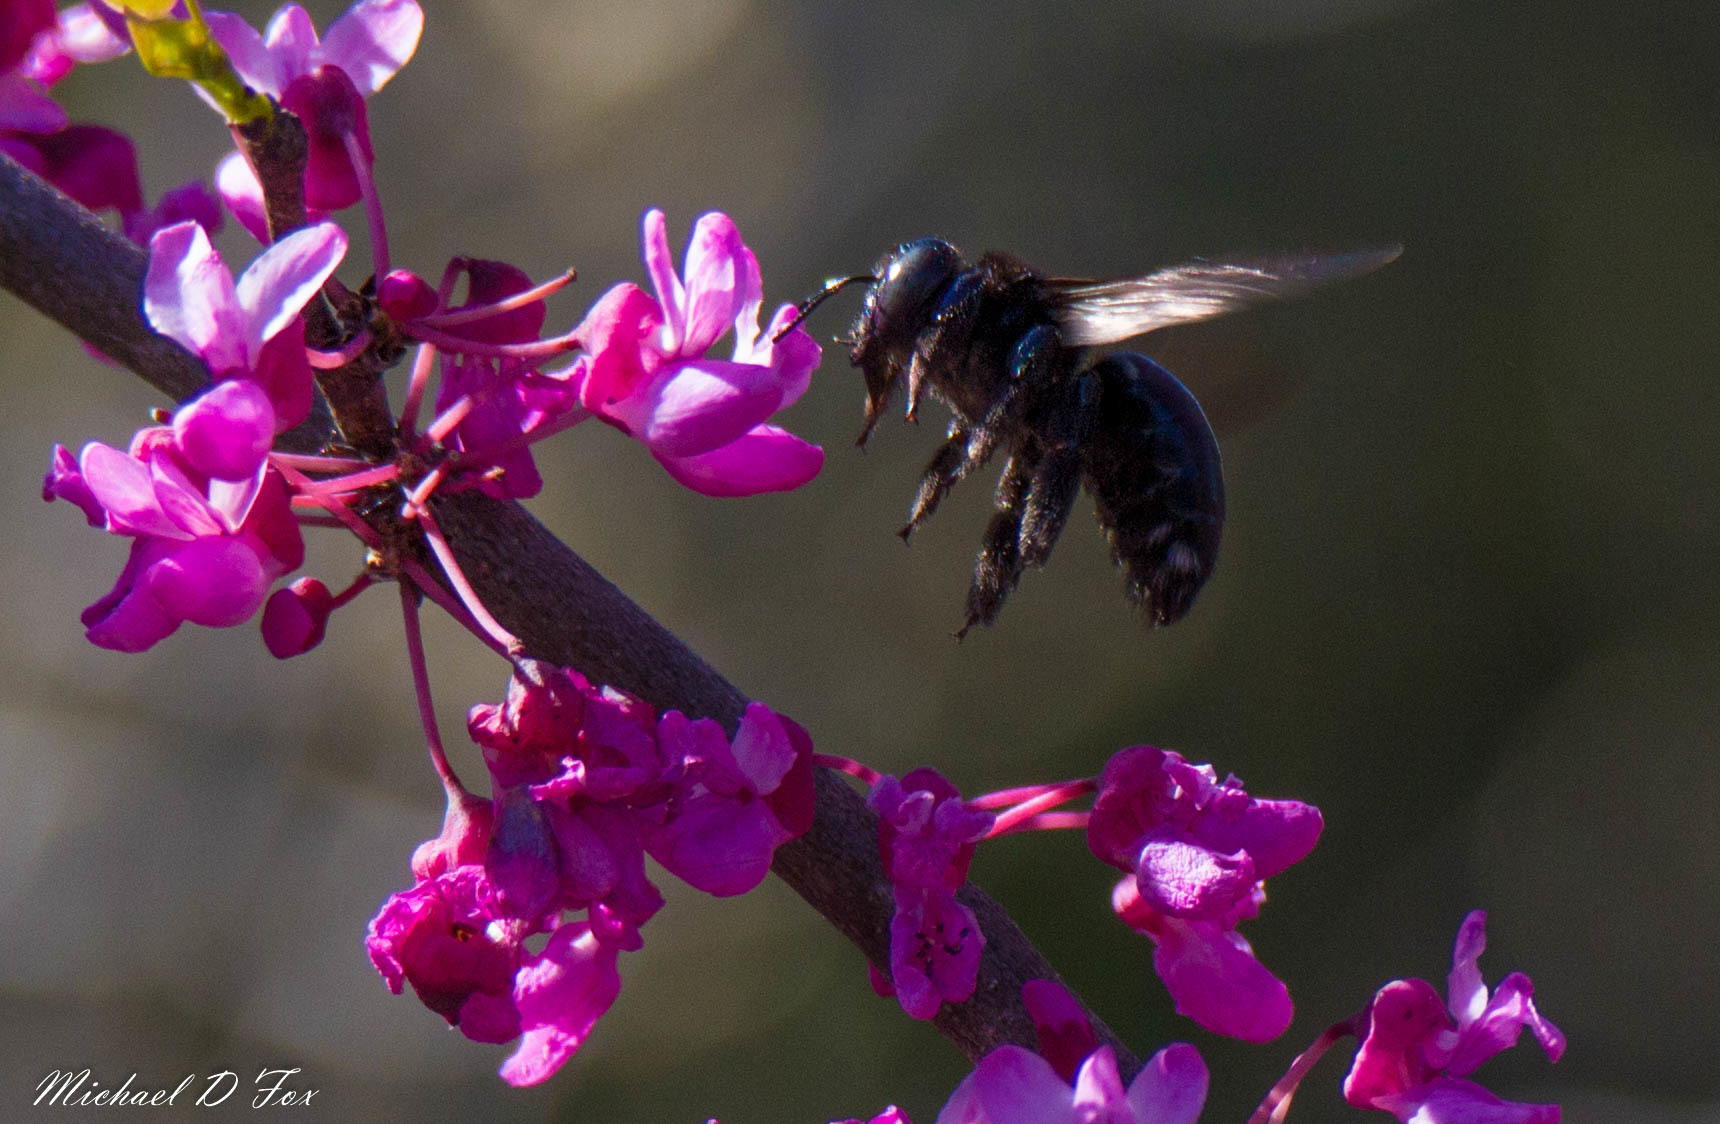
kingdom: Animalia
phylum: Arthropoda
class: Insecta
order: Hymenoptera
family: Apidae
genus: Xylocopa
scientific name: Xylocopa micans
